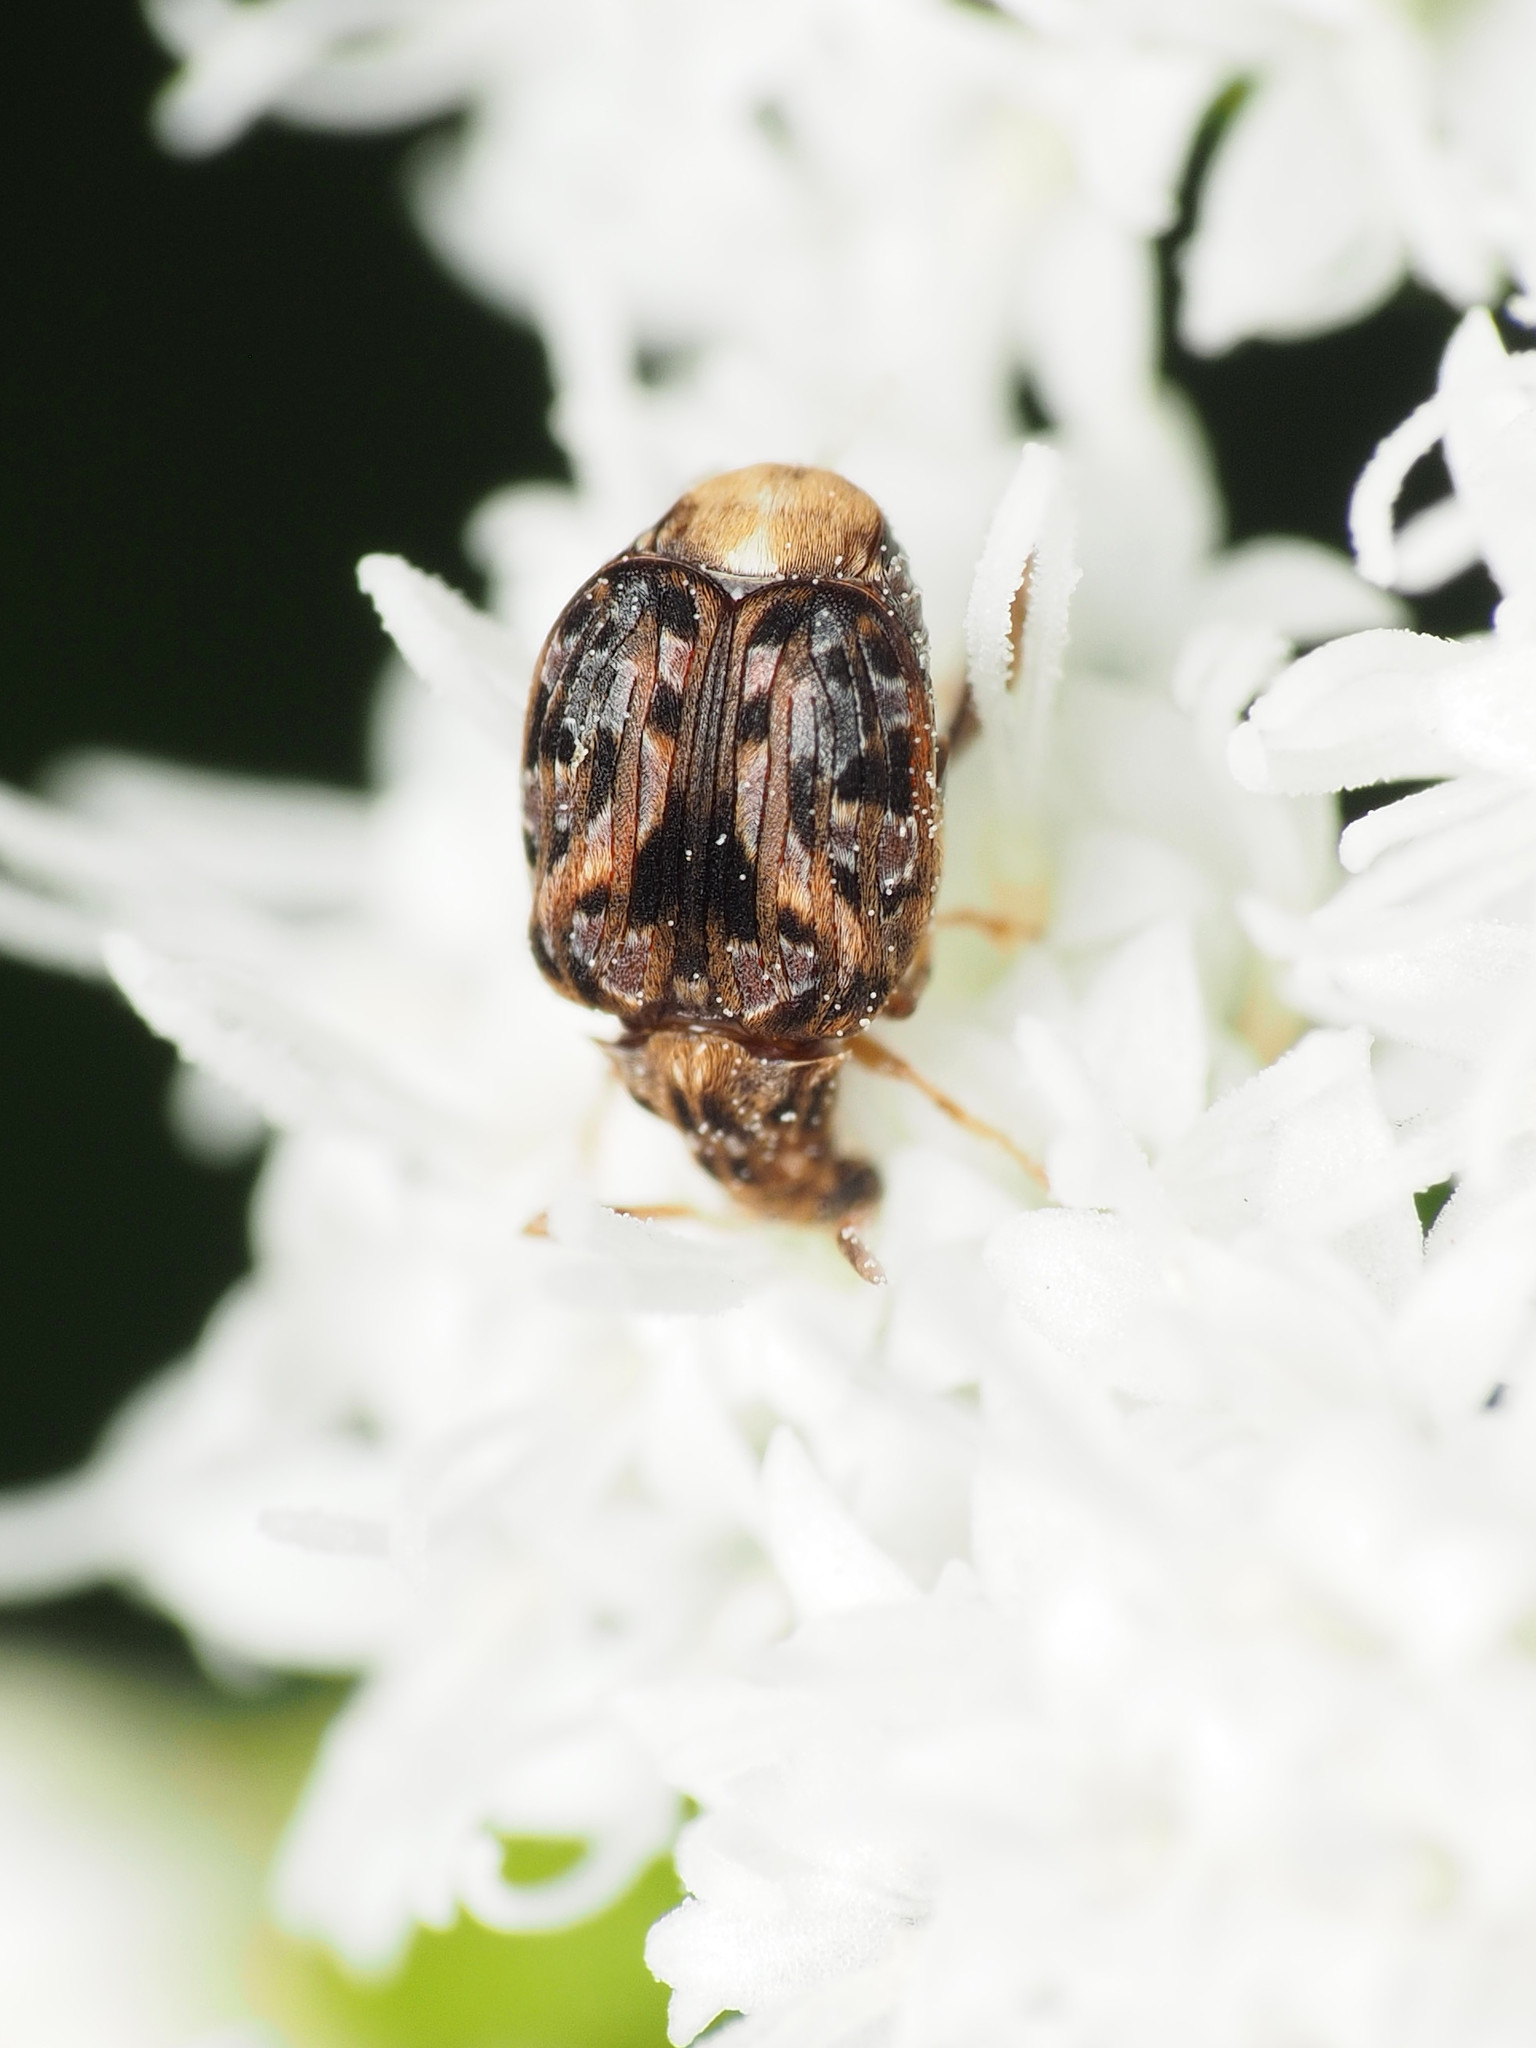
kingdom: Animalia
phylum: Arthropoda
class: Insecta
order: Coleoptera
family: Chrysomelidae
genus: Gibbobruchus
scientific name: Gibbobruchus mimus
